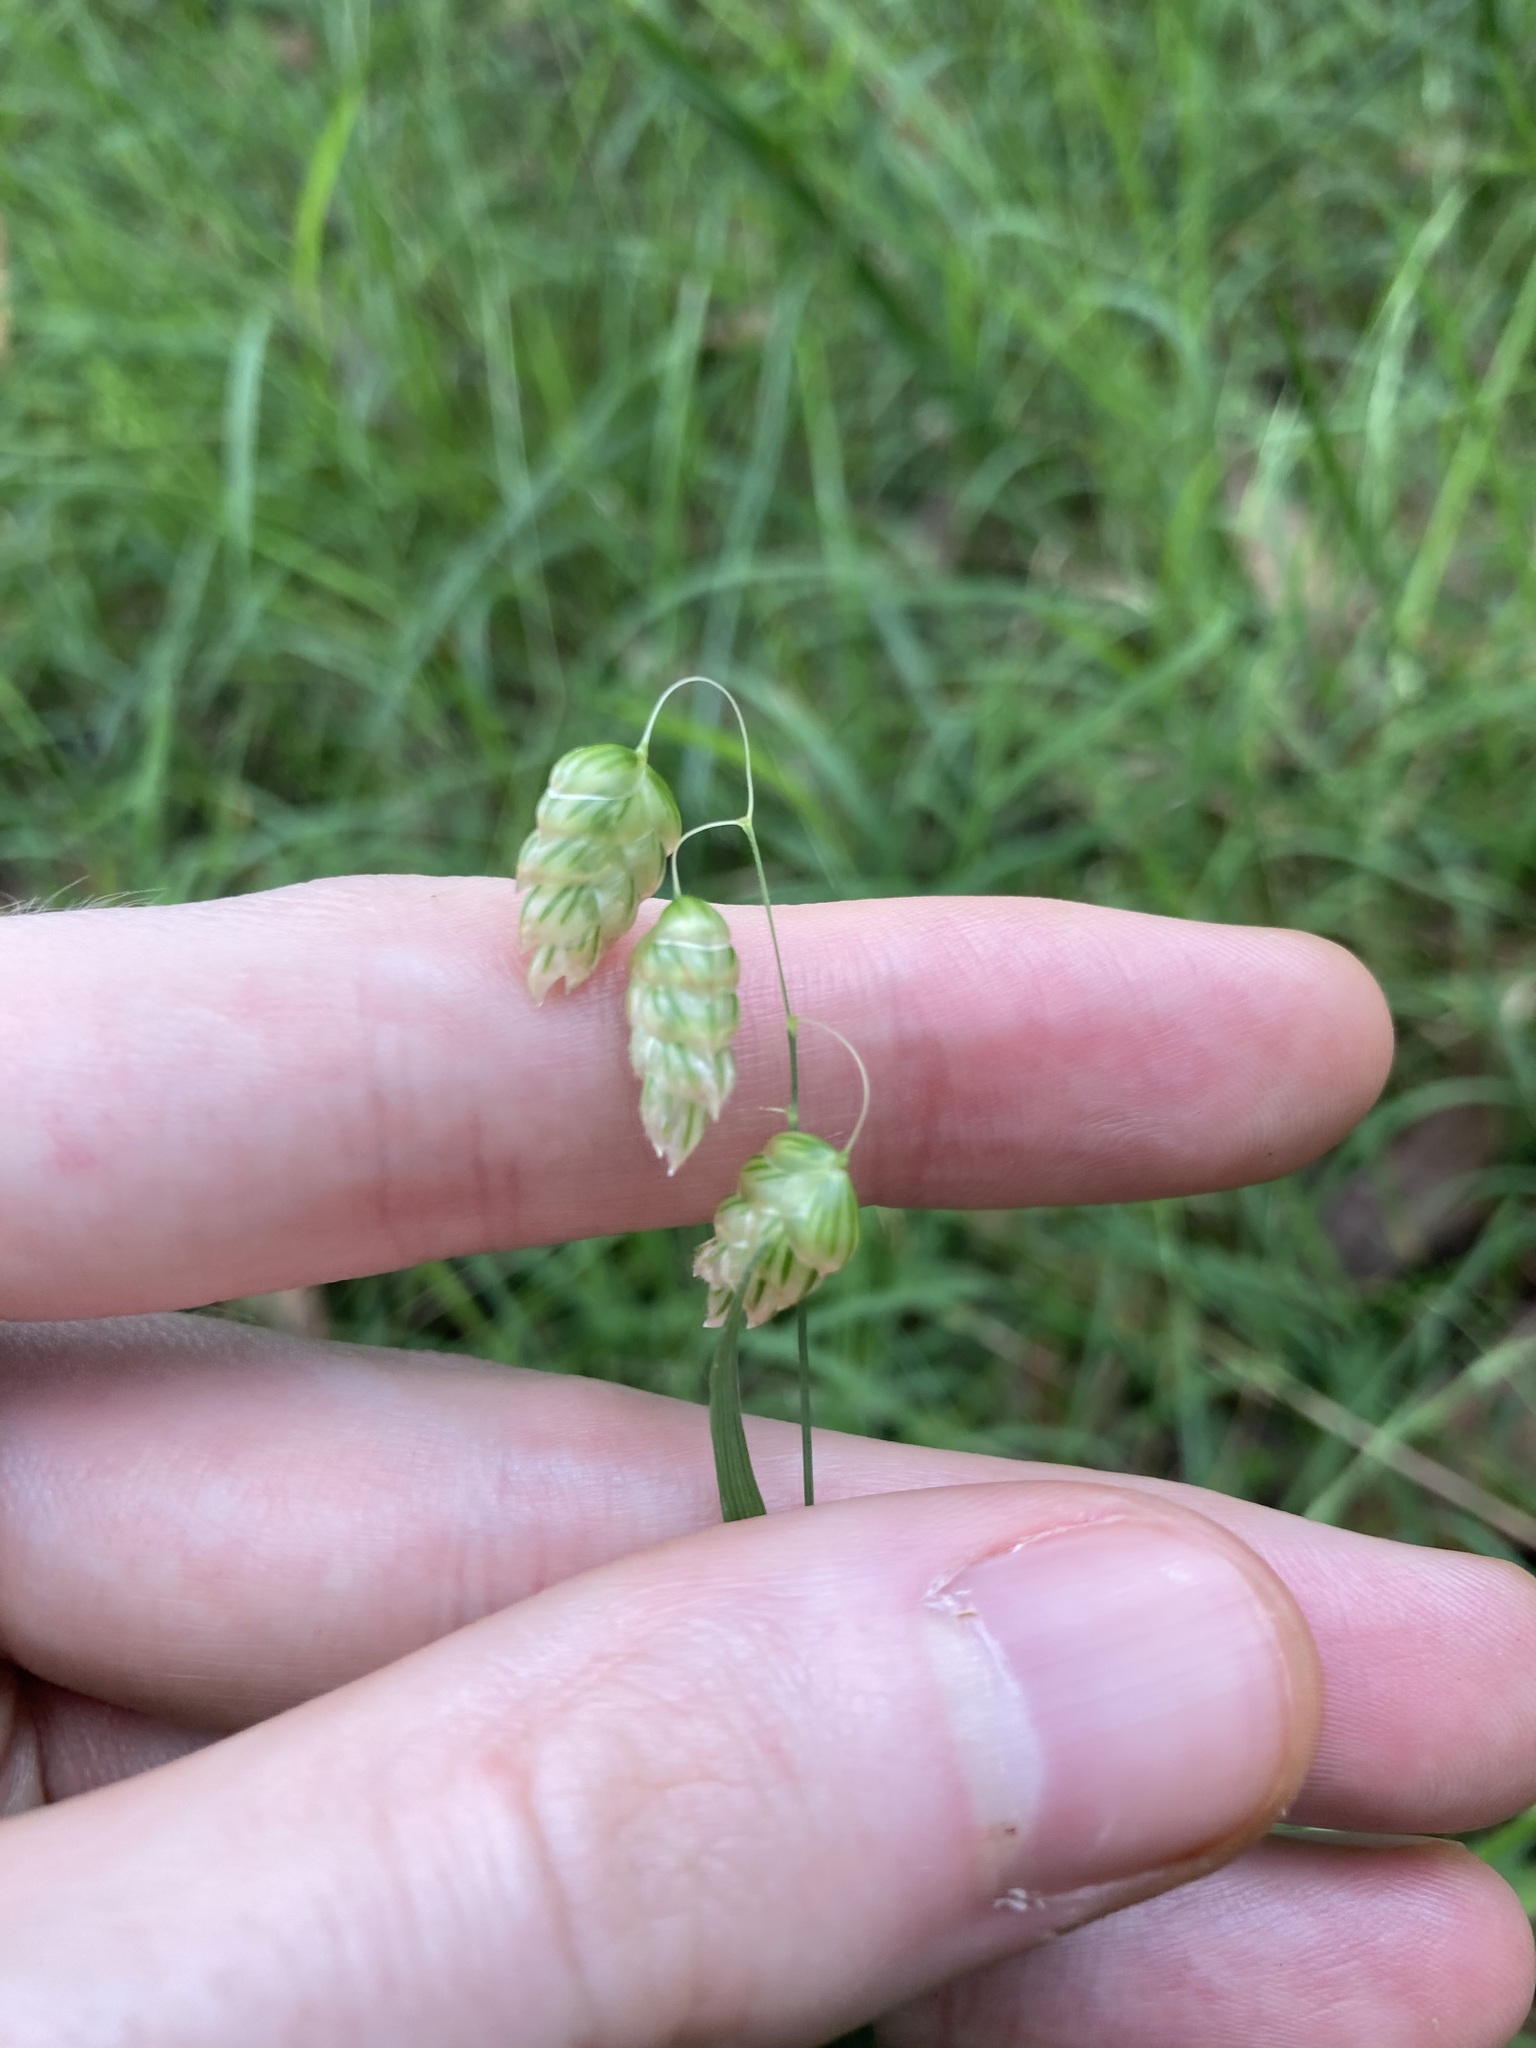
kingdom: Plantae
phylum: Tracheophyta
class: Liliopsida
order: Poales
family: Poaceae
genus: Briza
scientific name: Briza maxima
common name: Big quakinggrass
